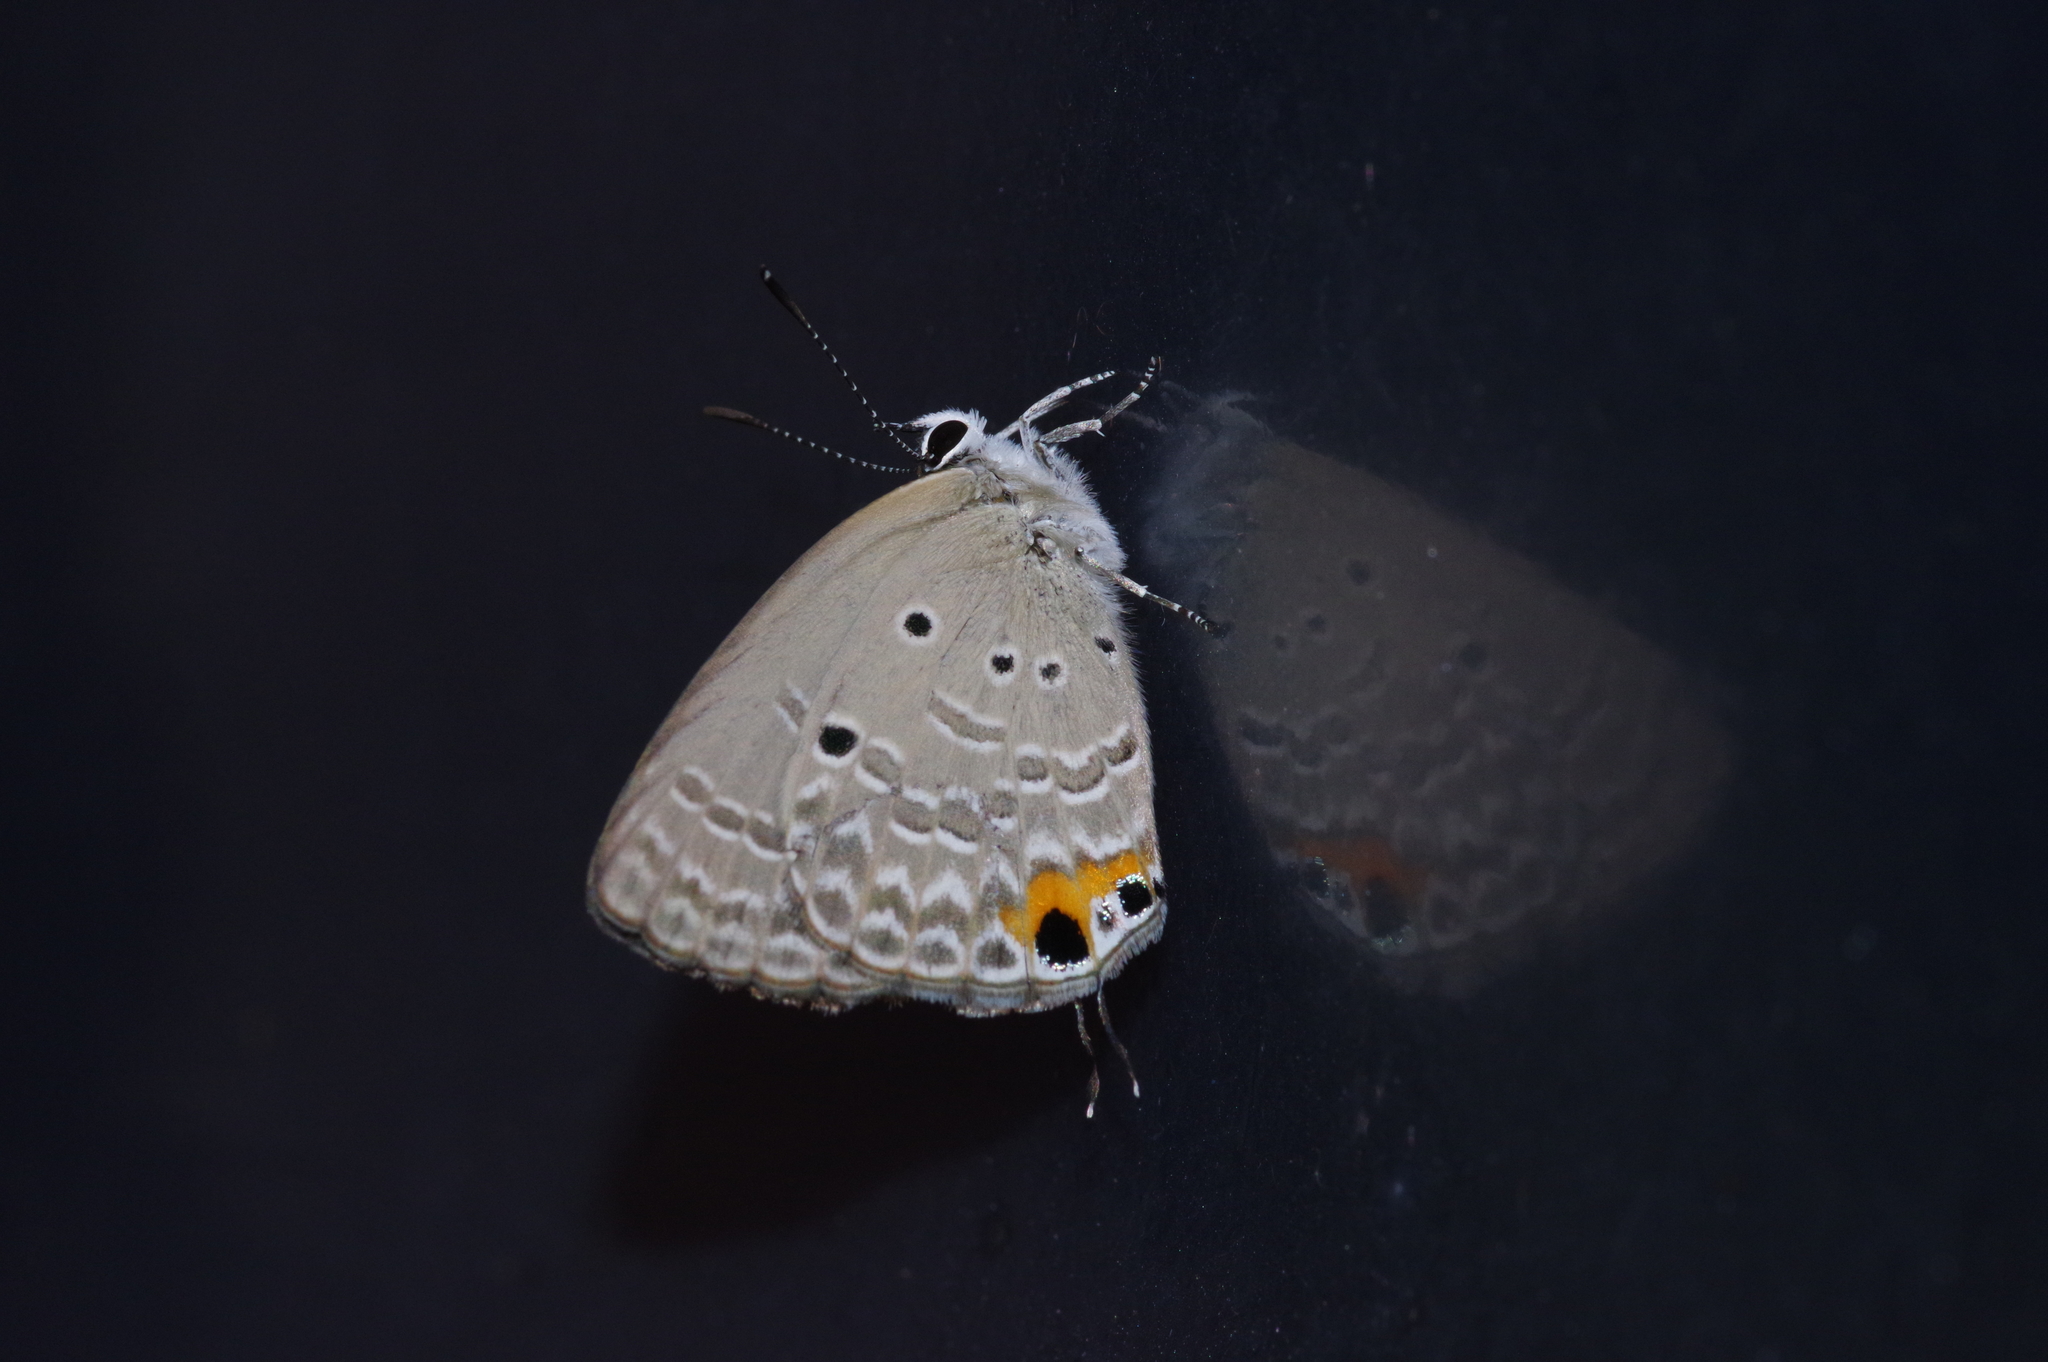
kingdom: Animalia
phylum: Arthropoda
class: Insecta
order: Lepidoptera
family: Lycaenidae
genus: Luthrodes
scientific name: Luthrodes pandava
